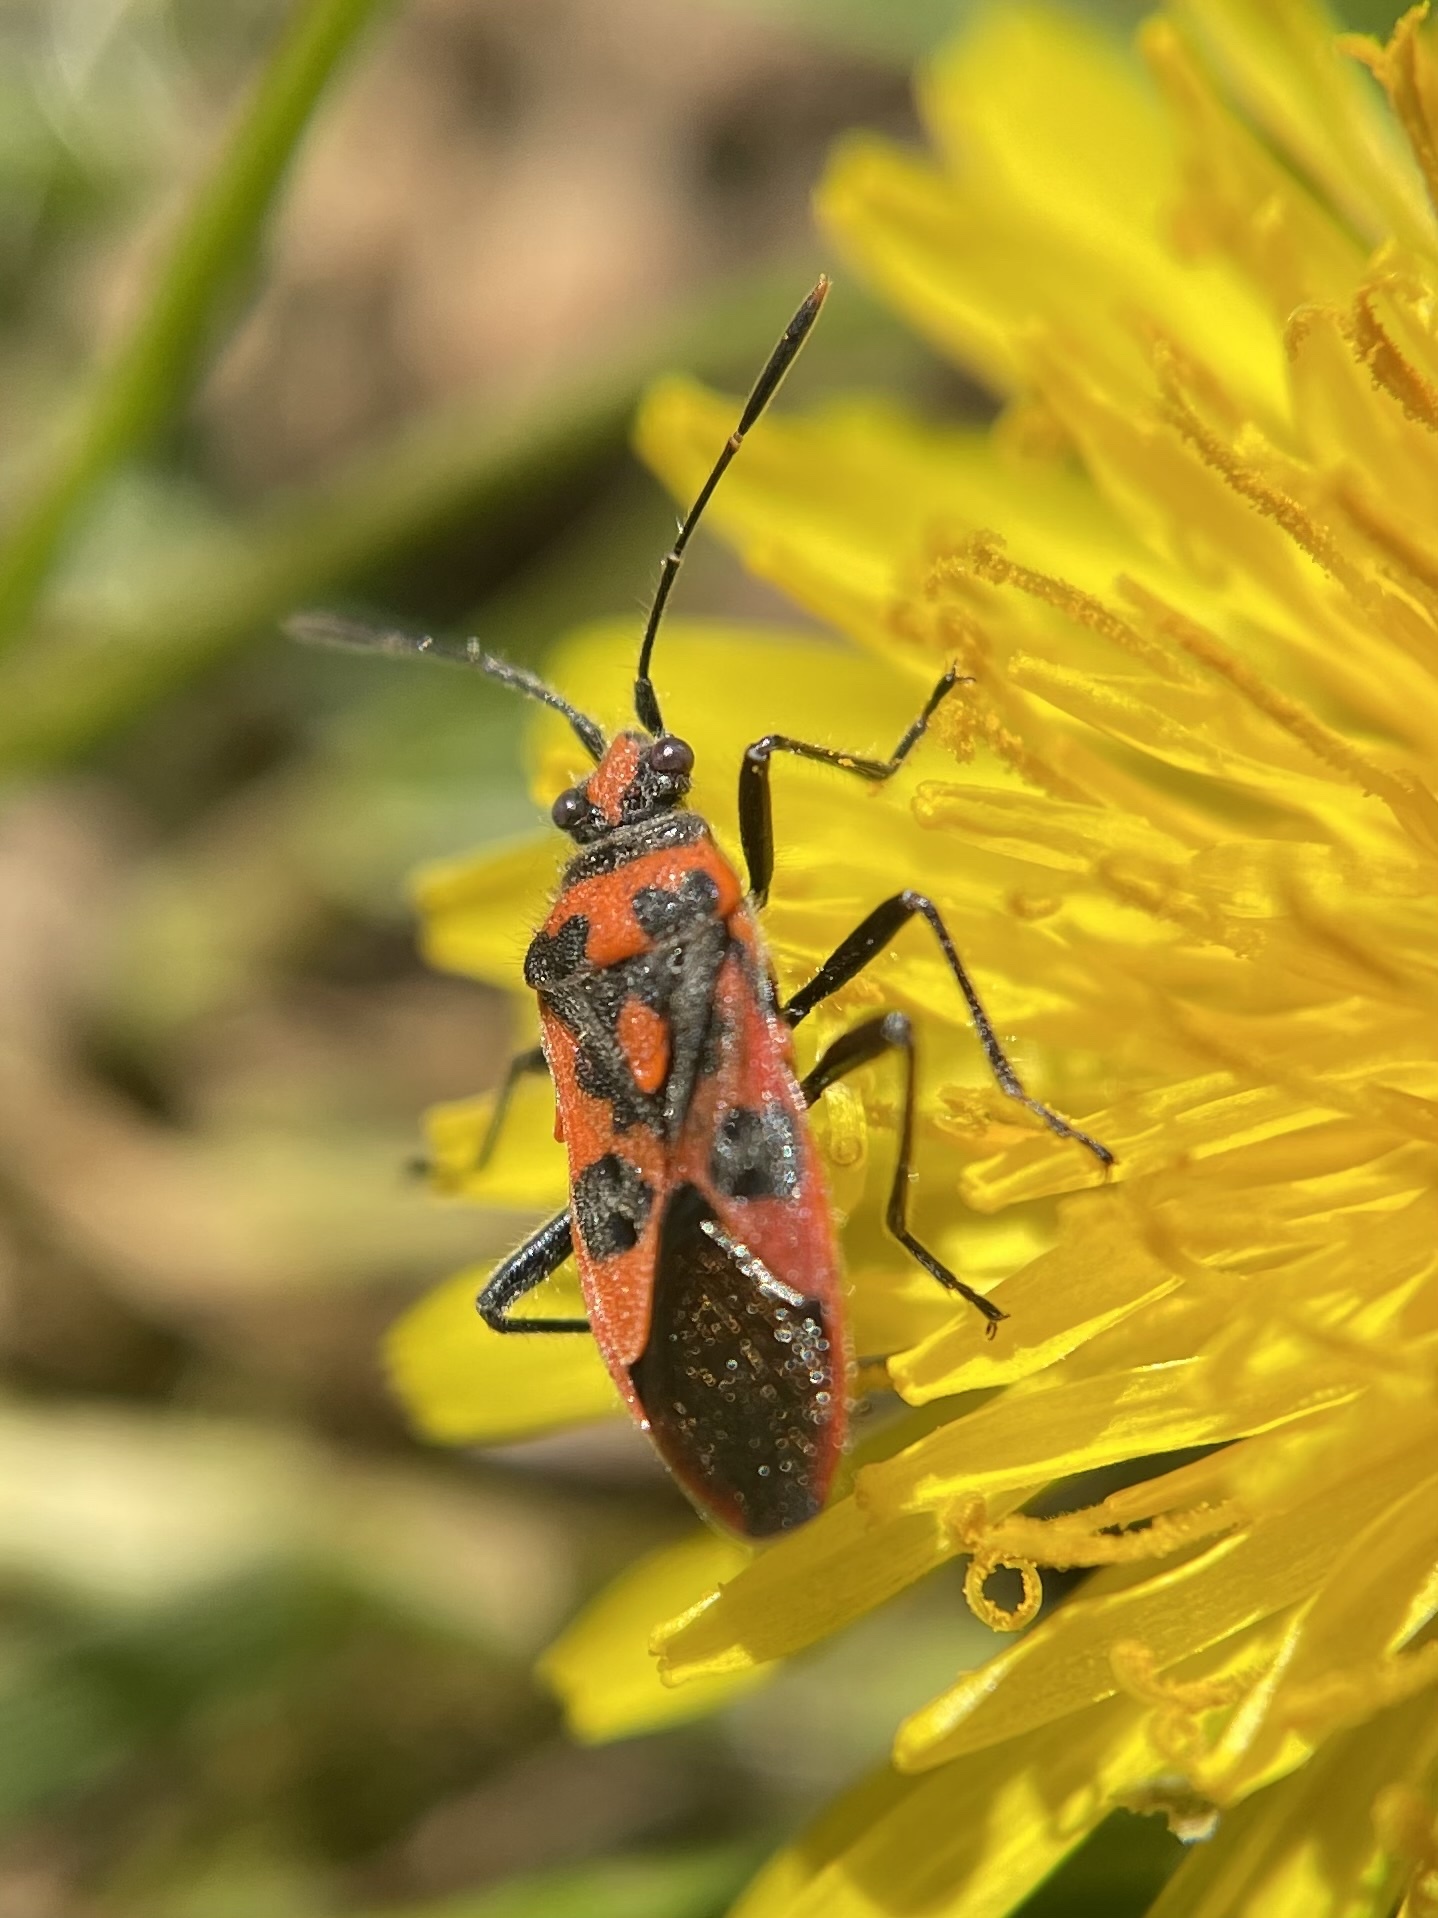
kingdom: Animalia
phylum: Arthropoda
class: Insecta
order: Hemiptera
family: Rhopalidae
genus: Corizus
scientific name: Corizus hyoscyami
